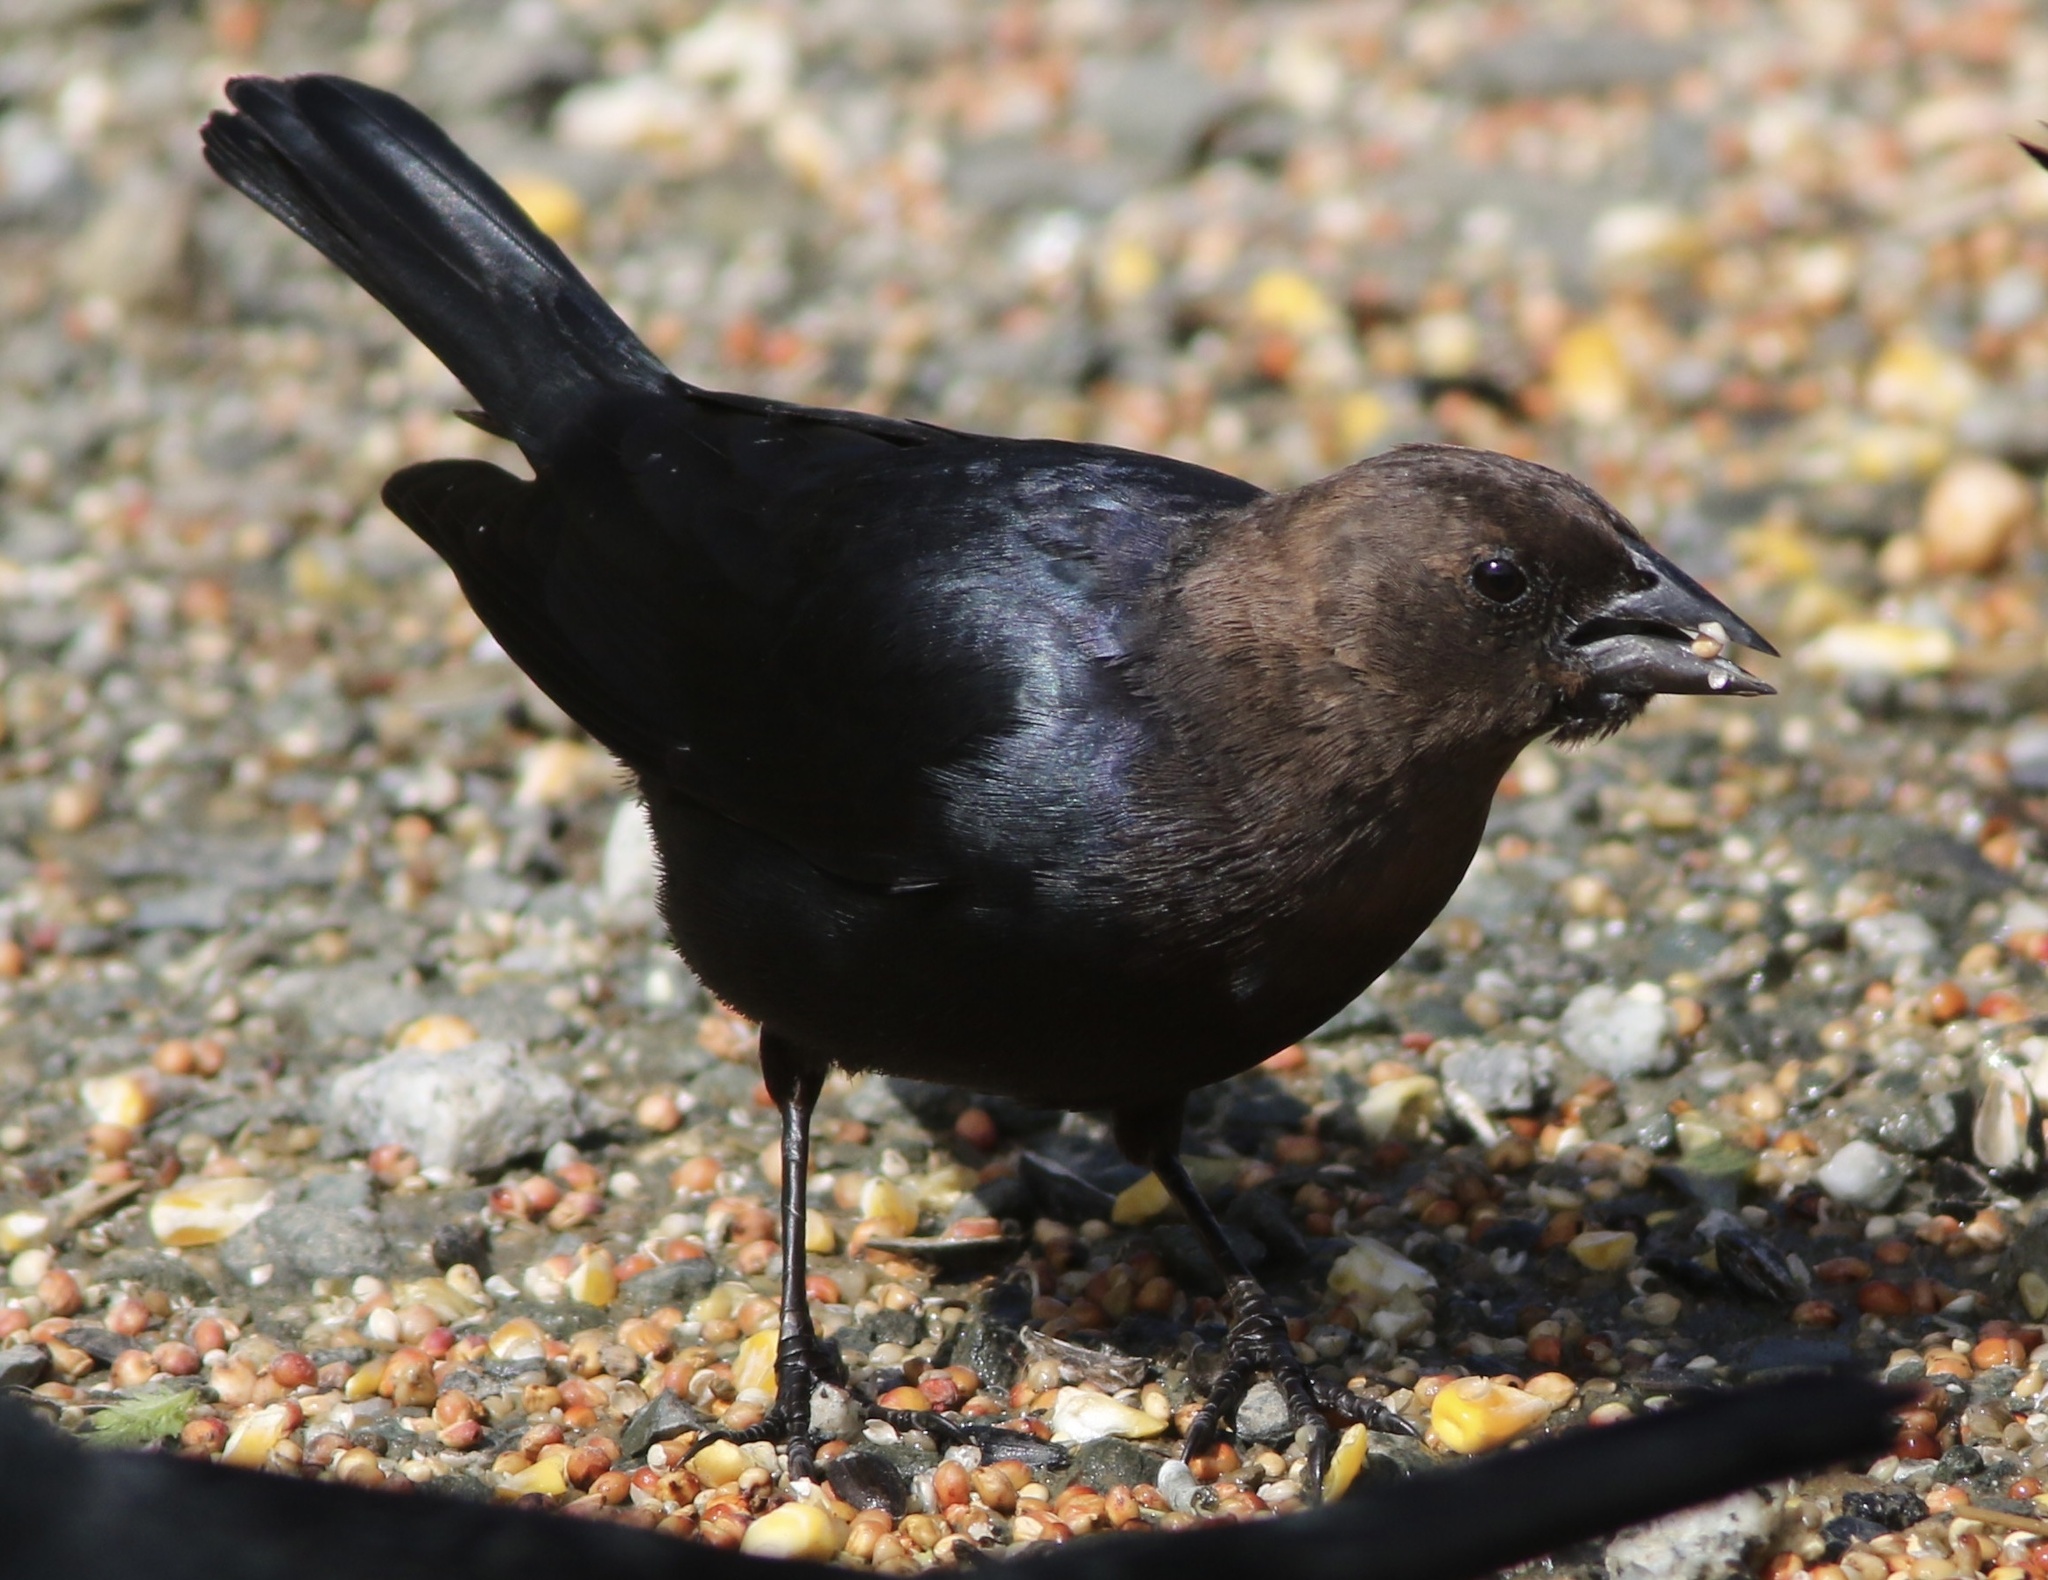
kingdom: Animalia
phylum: Chordata
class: Aves
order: Passeriformes
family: Icteridae
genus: Molothrus
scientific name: Molothrus ater
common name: Brown-headed cowbird
